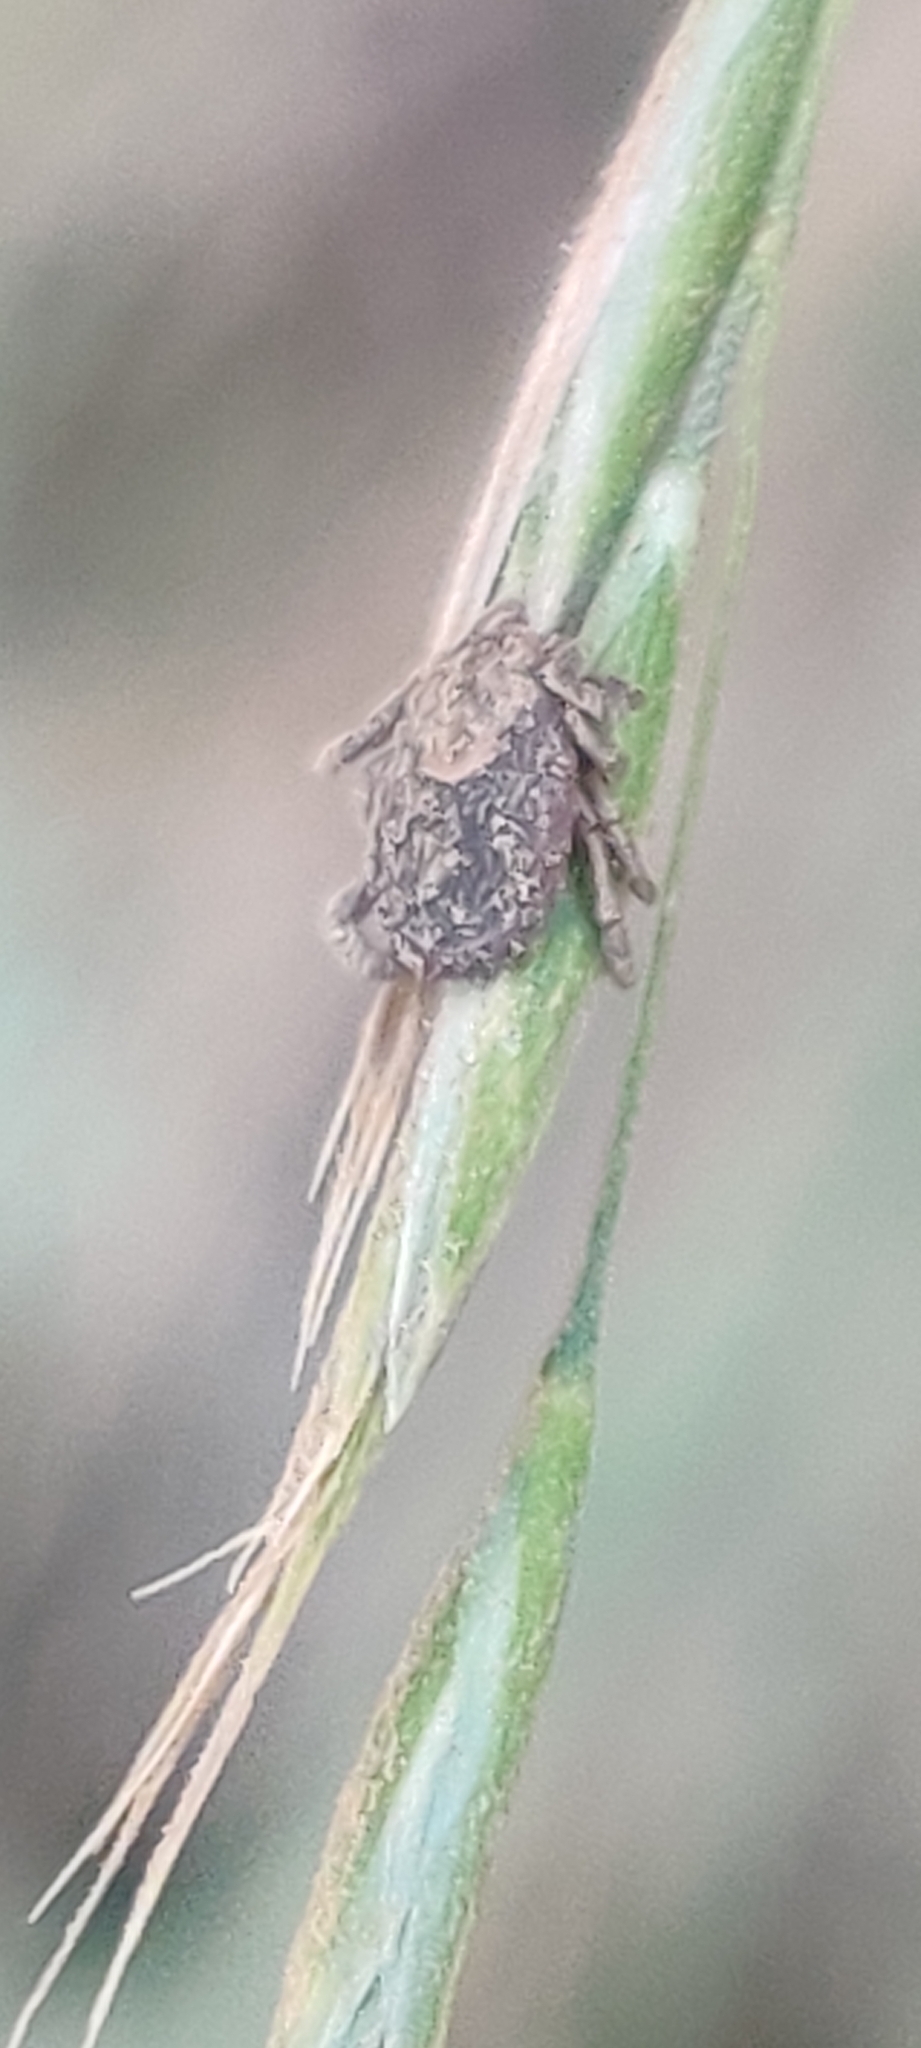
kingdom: Animalia
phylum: Arthropoda
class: Arachnida
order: Ixodida
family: Ixodidae
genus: Dermacentor
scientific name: Dermacentor occidentalis
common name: Net tick
